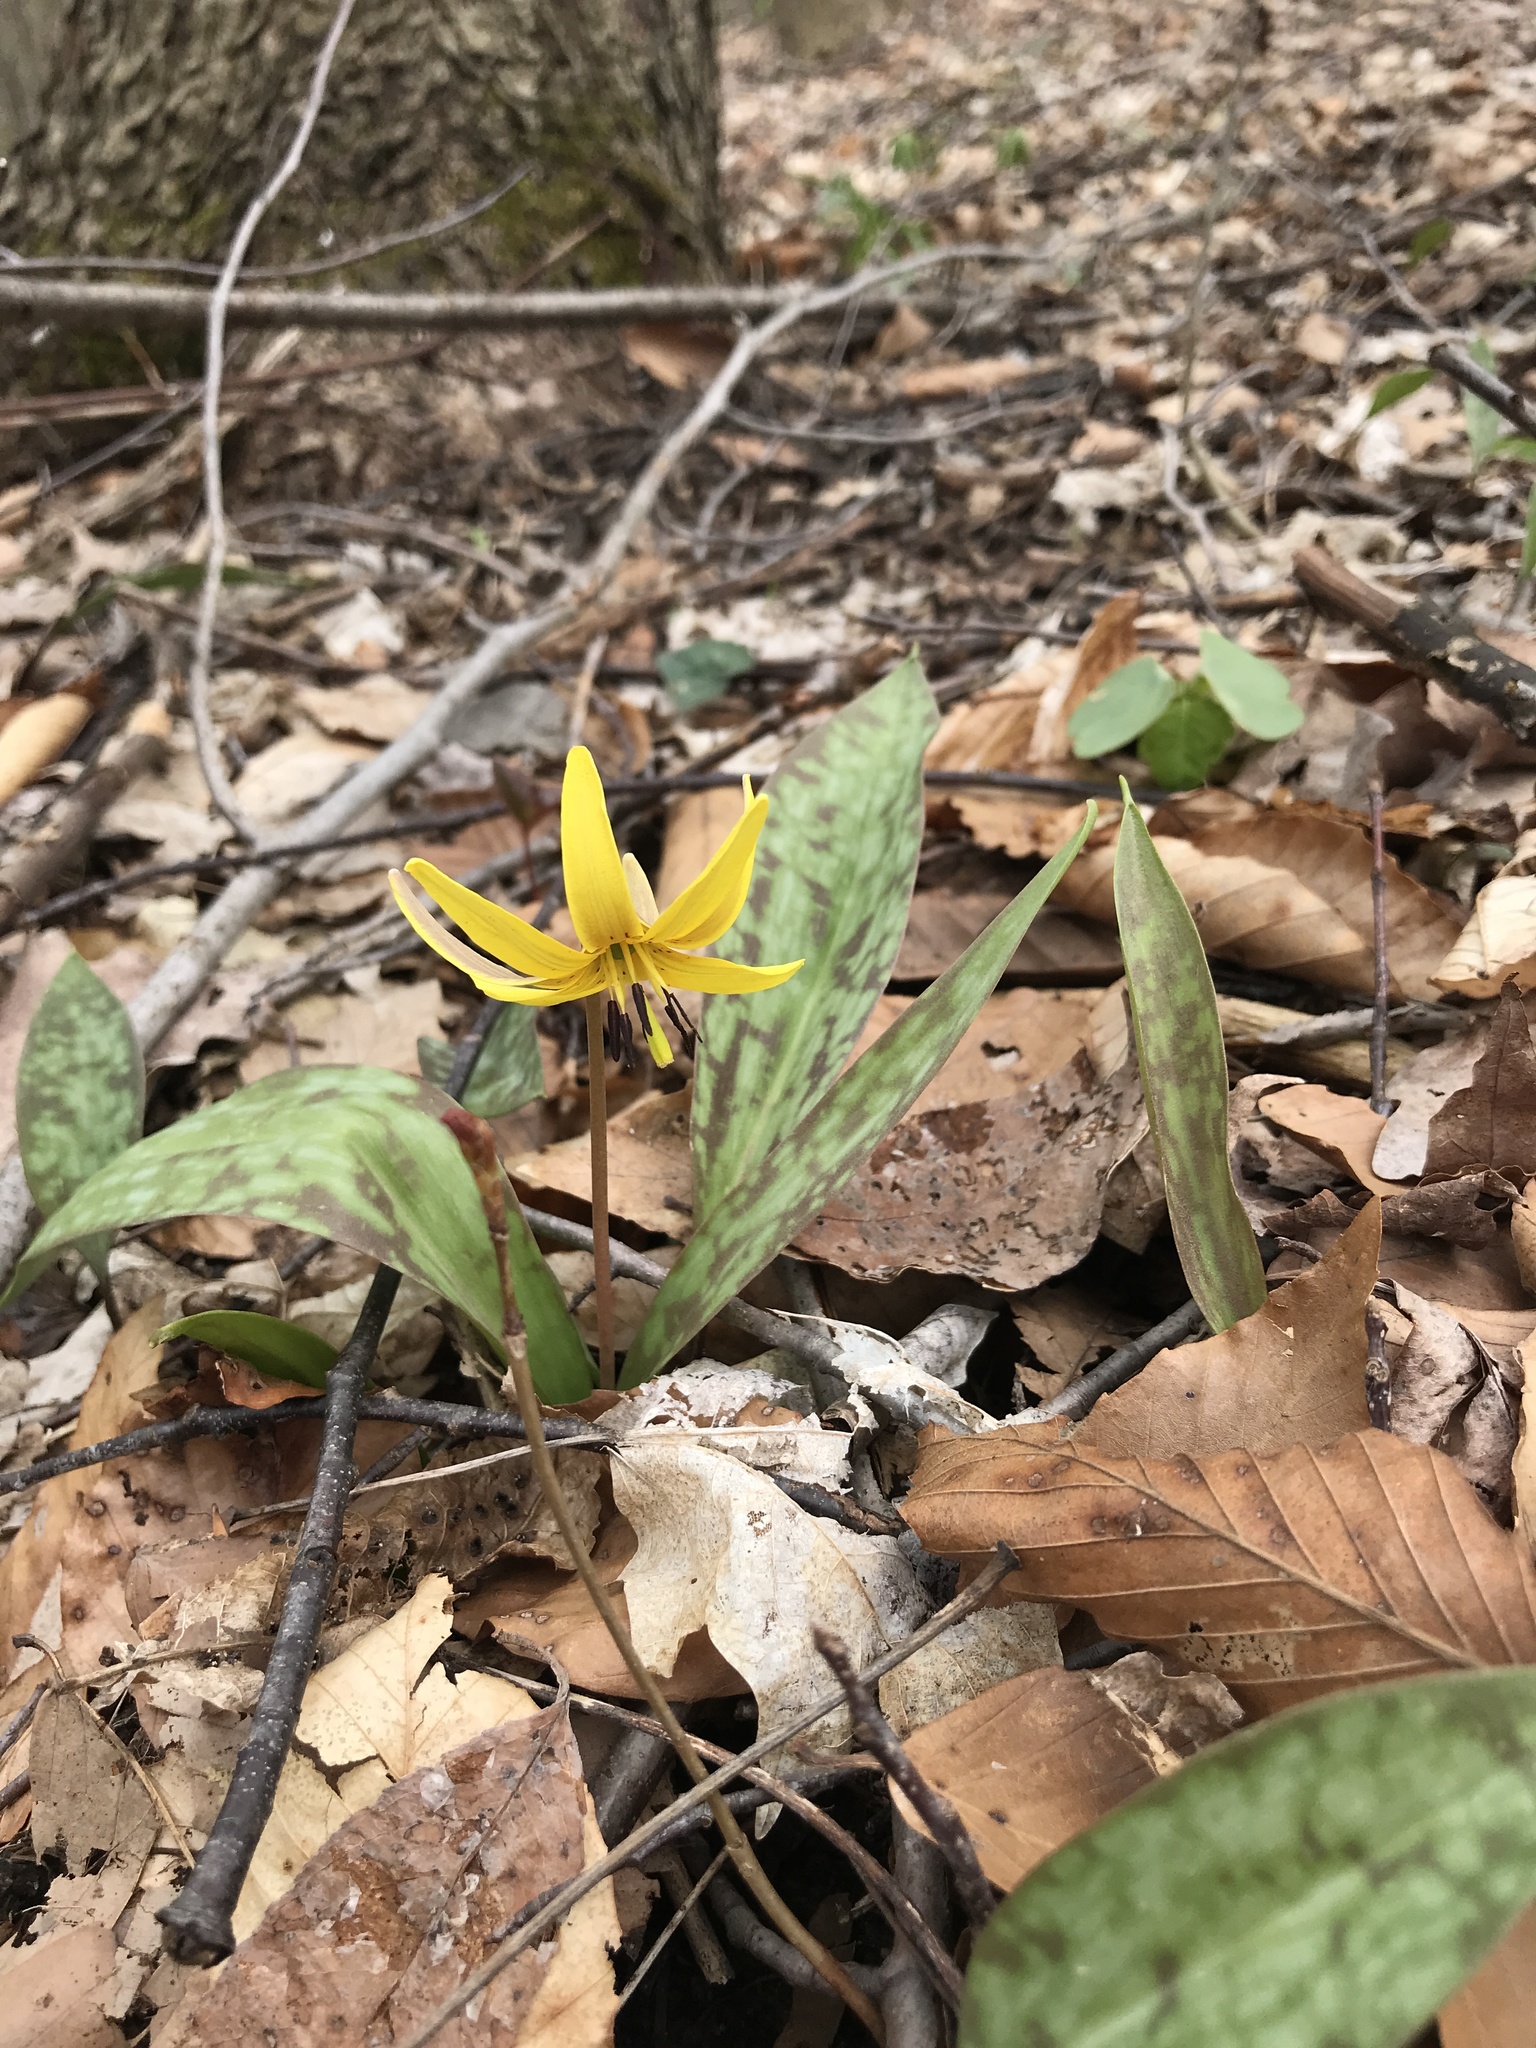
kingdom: Plantae
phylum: Tracheophyta
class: Liliopsida
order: Liliales
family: Liliaceae
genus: Erythronium
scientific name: Erythronium americanum
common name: Yellow adder's-tongue
